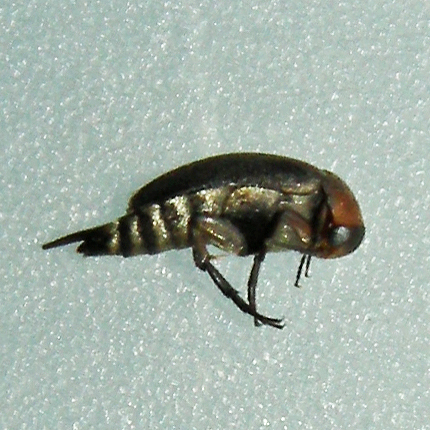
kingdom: Animalia
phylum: Arthropoda
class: Insecta
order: Coleoptera
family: Mordellidae
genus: Mordellistena
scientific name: Mordellistena cervicalis
